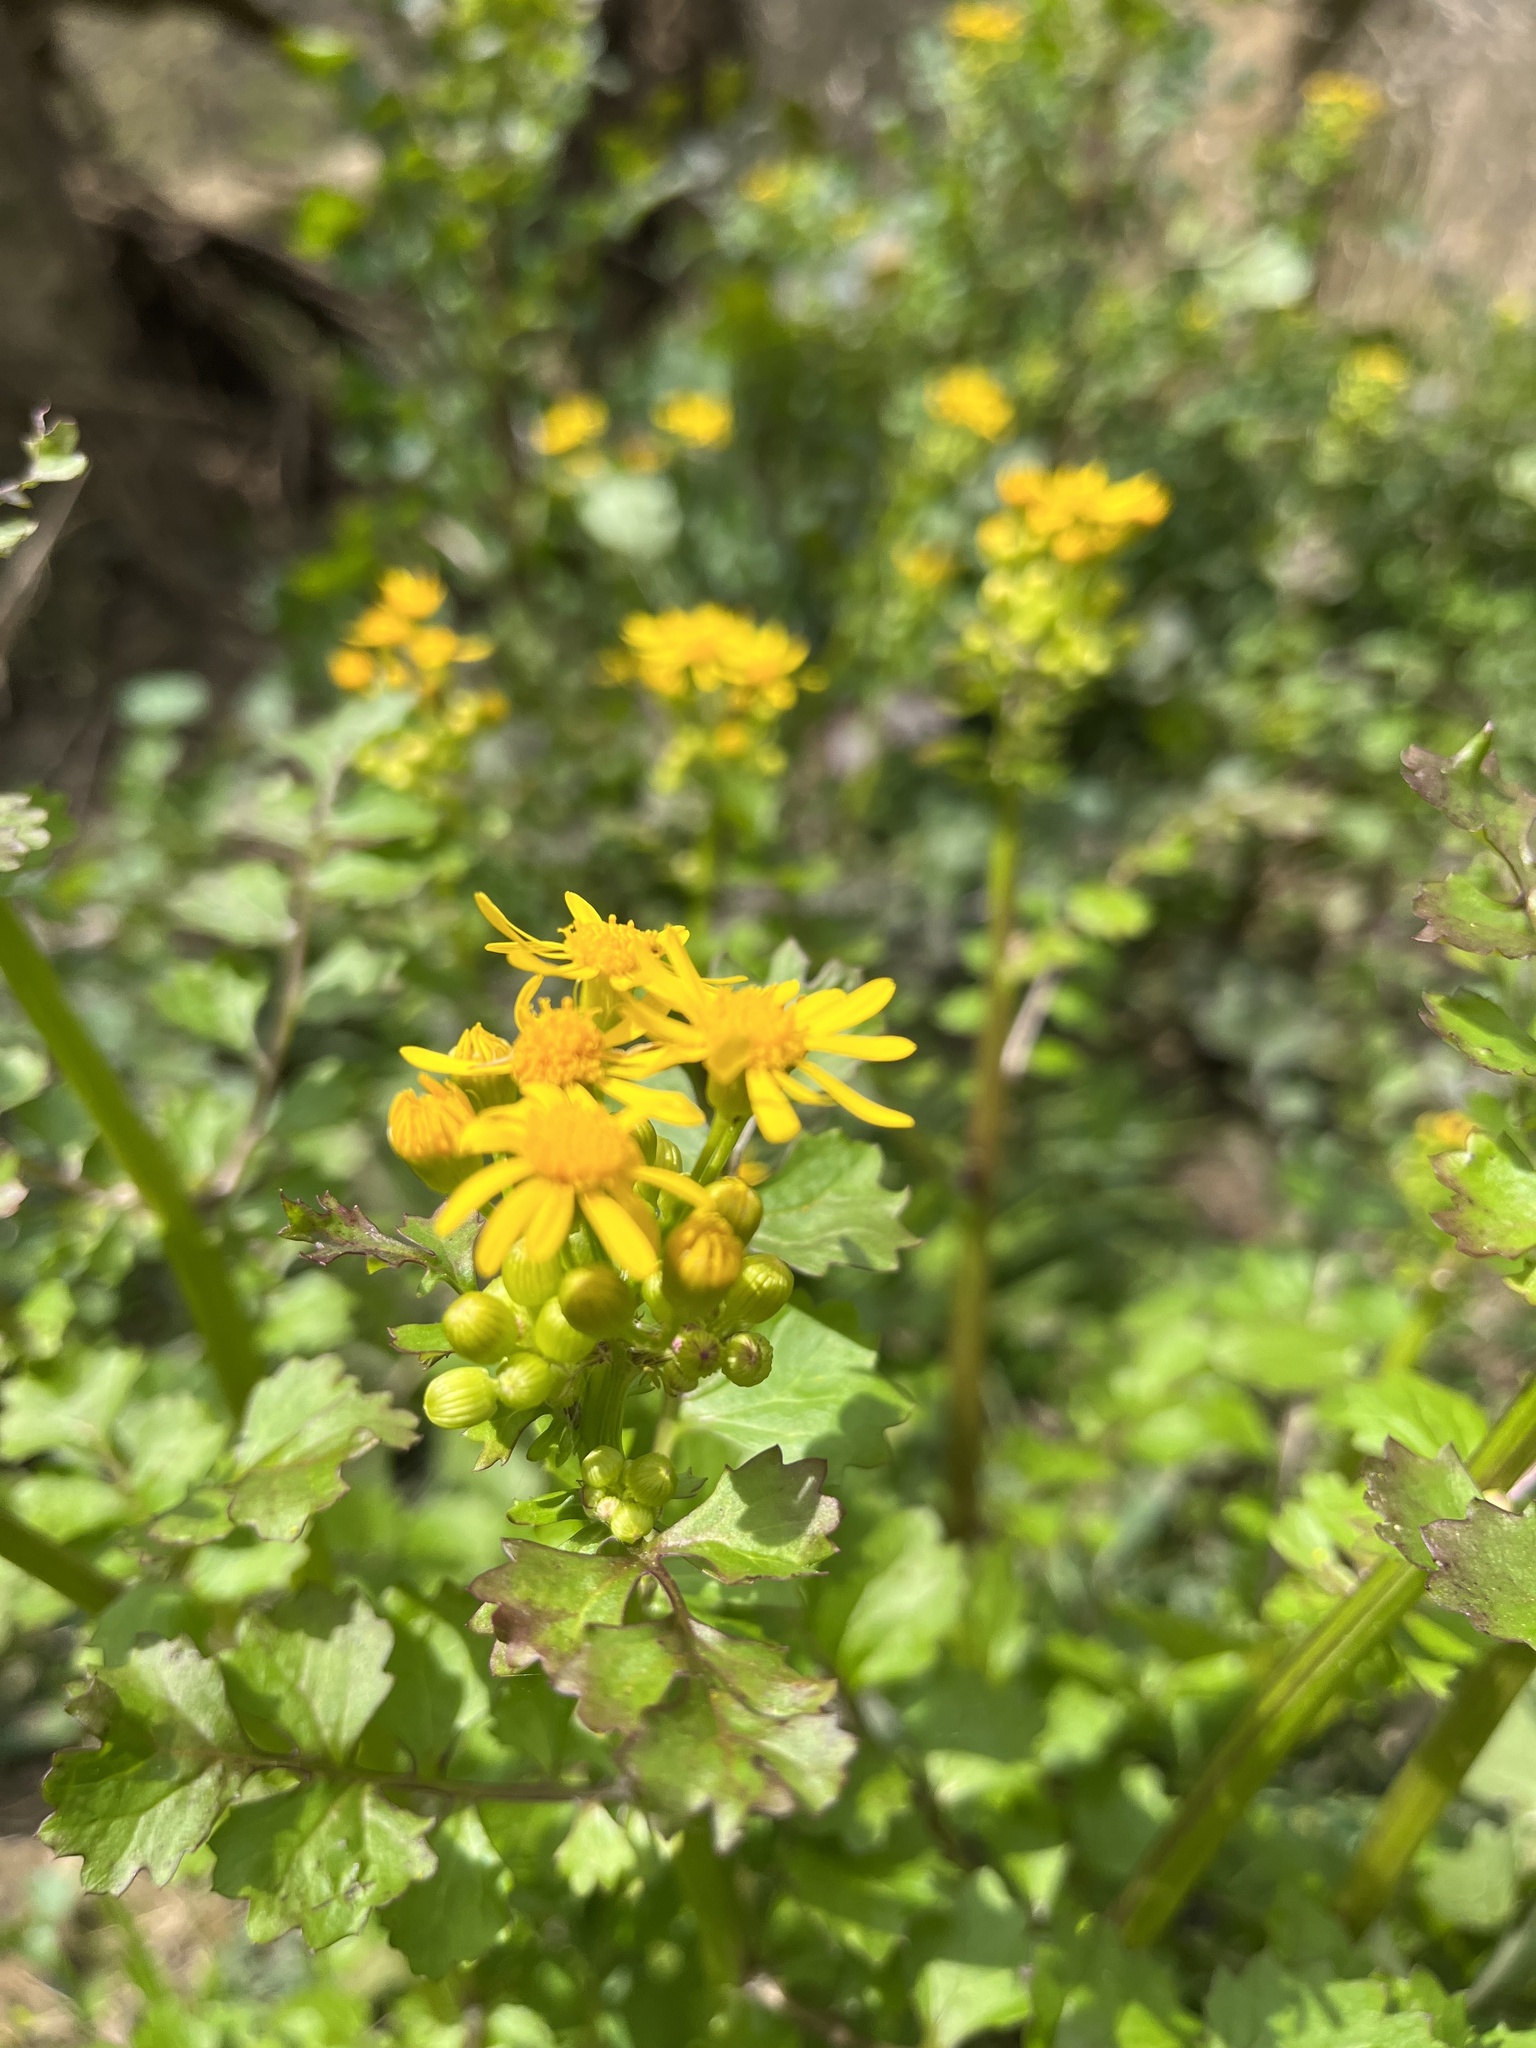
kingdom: Plantae
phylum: Tracheophyta
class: Magnoliopsida
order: Asterales
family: Asteraceae
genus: Packera
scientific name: Packera glabella
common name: Butterweed
